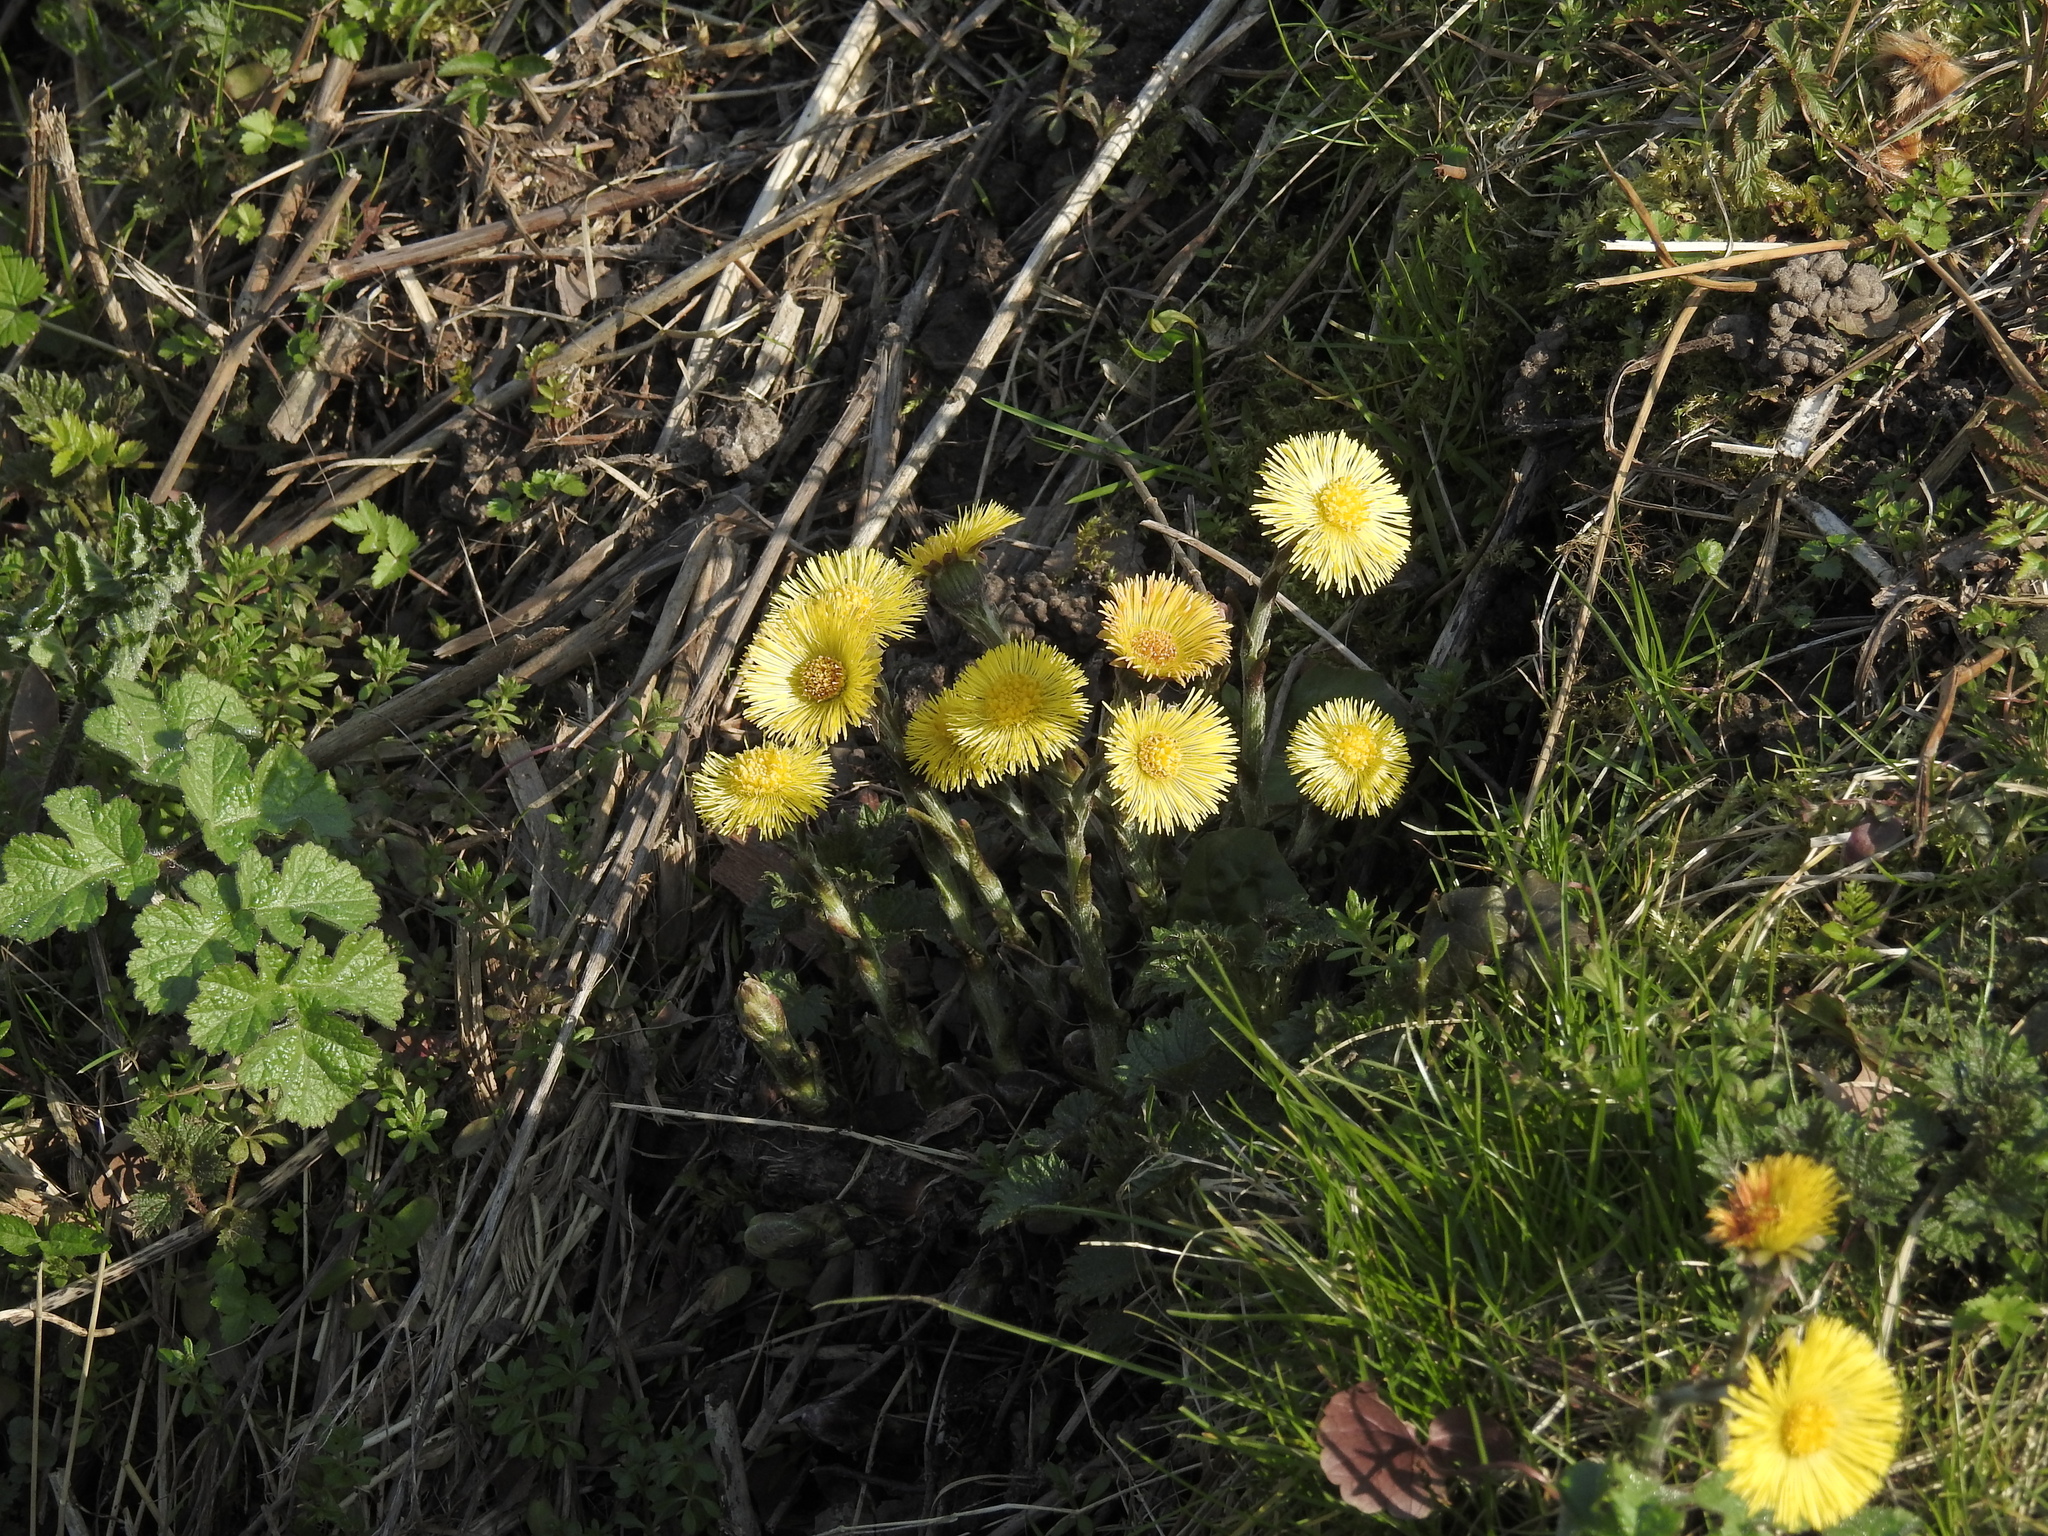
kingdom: Plantae
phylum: Tracheophyta
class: Magnoliopsida
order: Asterales
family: Asteraceae
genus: Tussilago
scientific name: Tussilago farfara
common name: Coltsfoot
